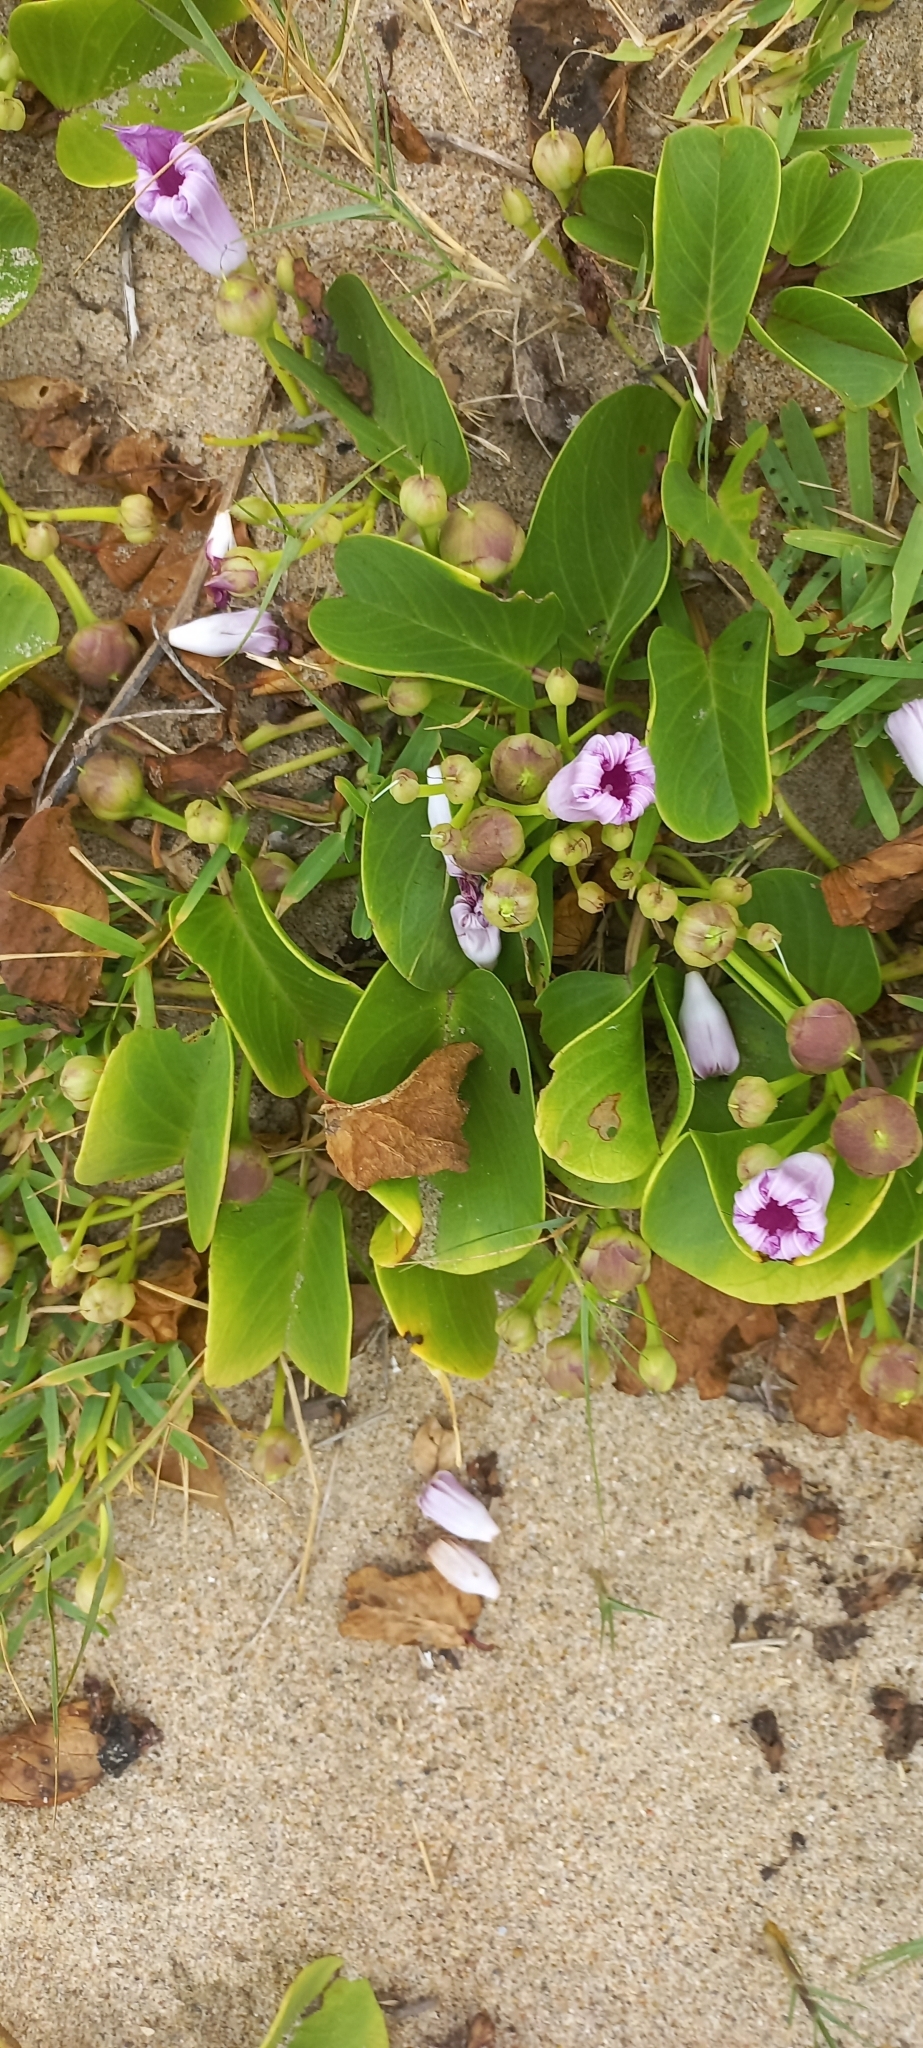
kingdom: Plantae
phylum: Tracheophyta
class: Magnoliopsida
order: Solanales
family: Convolvulaceae
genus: Ipomoea
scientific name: Ipomoea pes-caprae
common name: Beach morning glory
